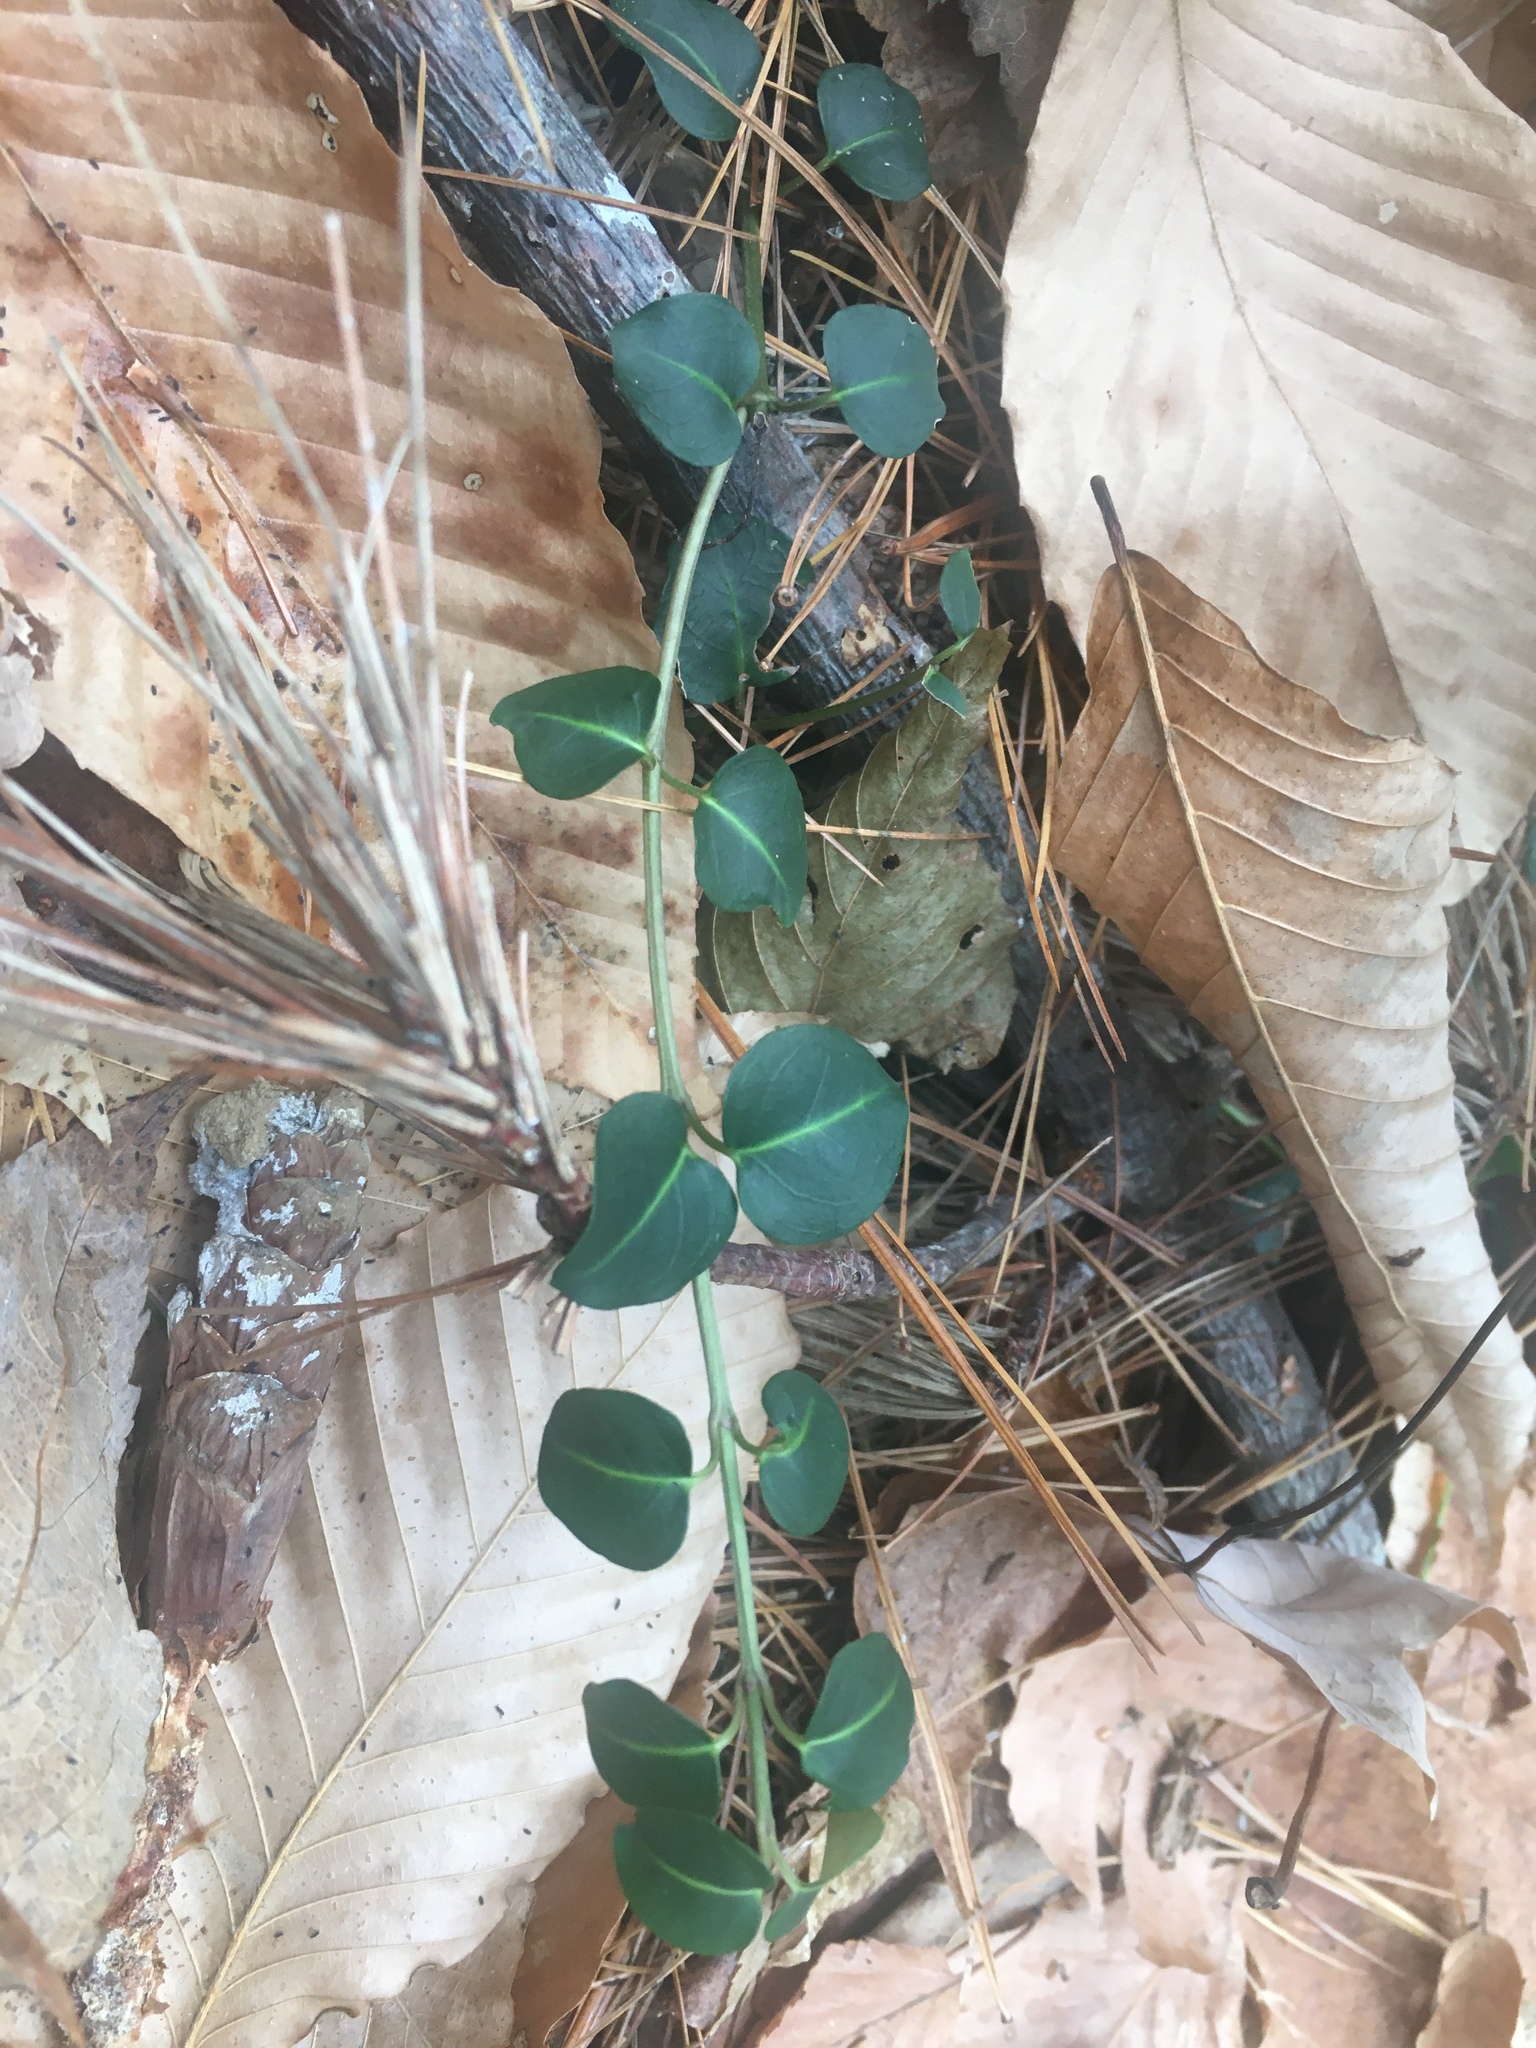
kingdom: Plantae
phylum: Tracheophyta
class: Magnoliopsida
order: Gentianales
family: Rubiaceae
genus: Mitchella
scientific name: Mitchella repens
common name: Partridge-berry
